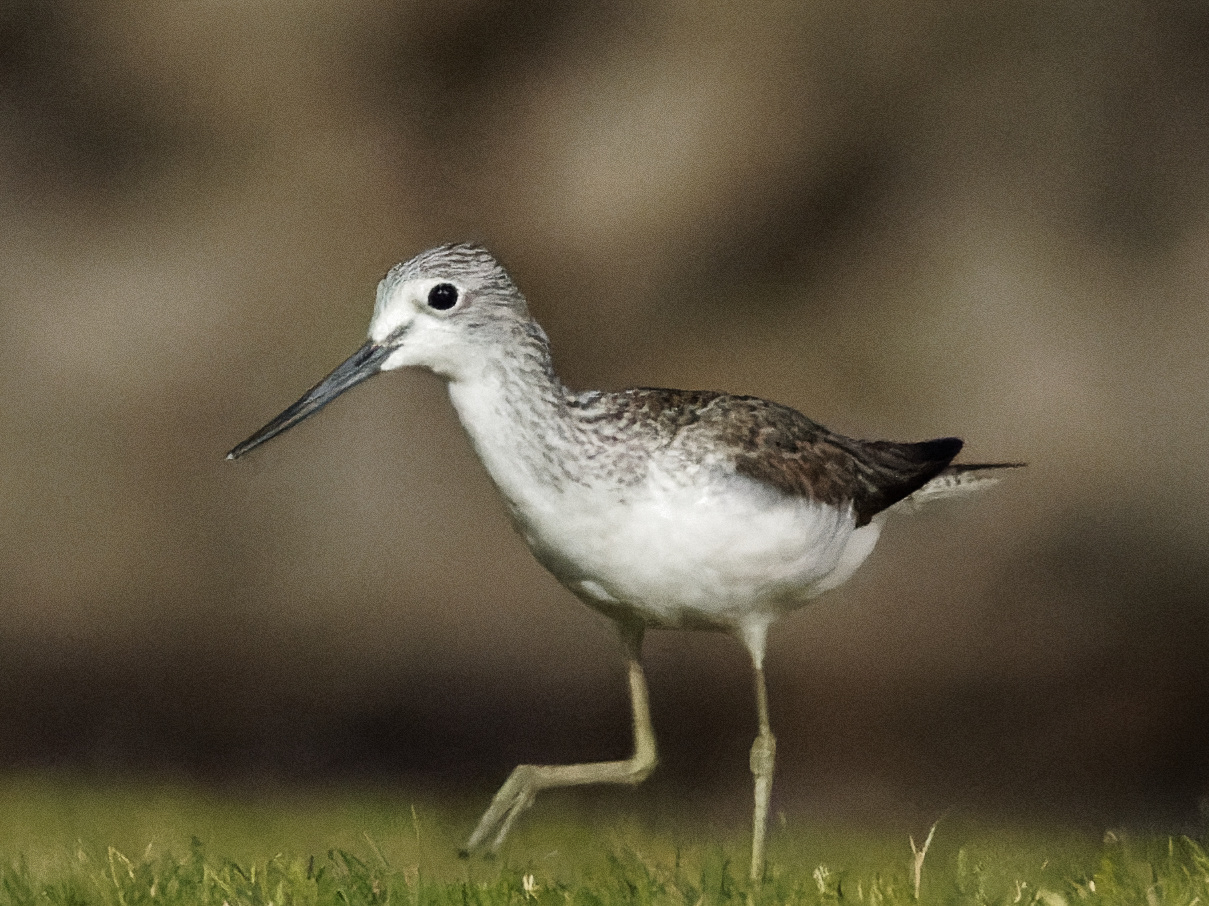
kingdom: Animalia
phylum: Chordata
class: Aves
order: Charadriiformes
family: Scolopacidae
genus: Tringa
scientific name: Tringa nebularia
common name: Common greenshank
